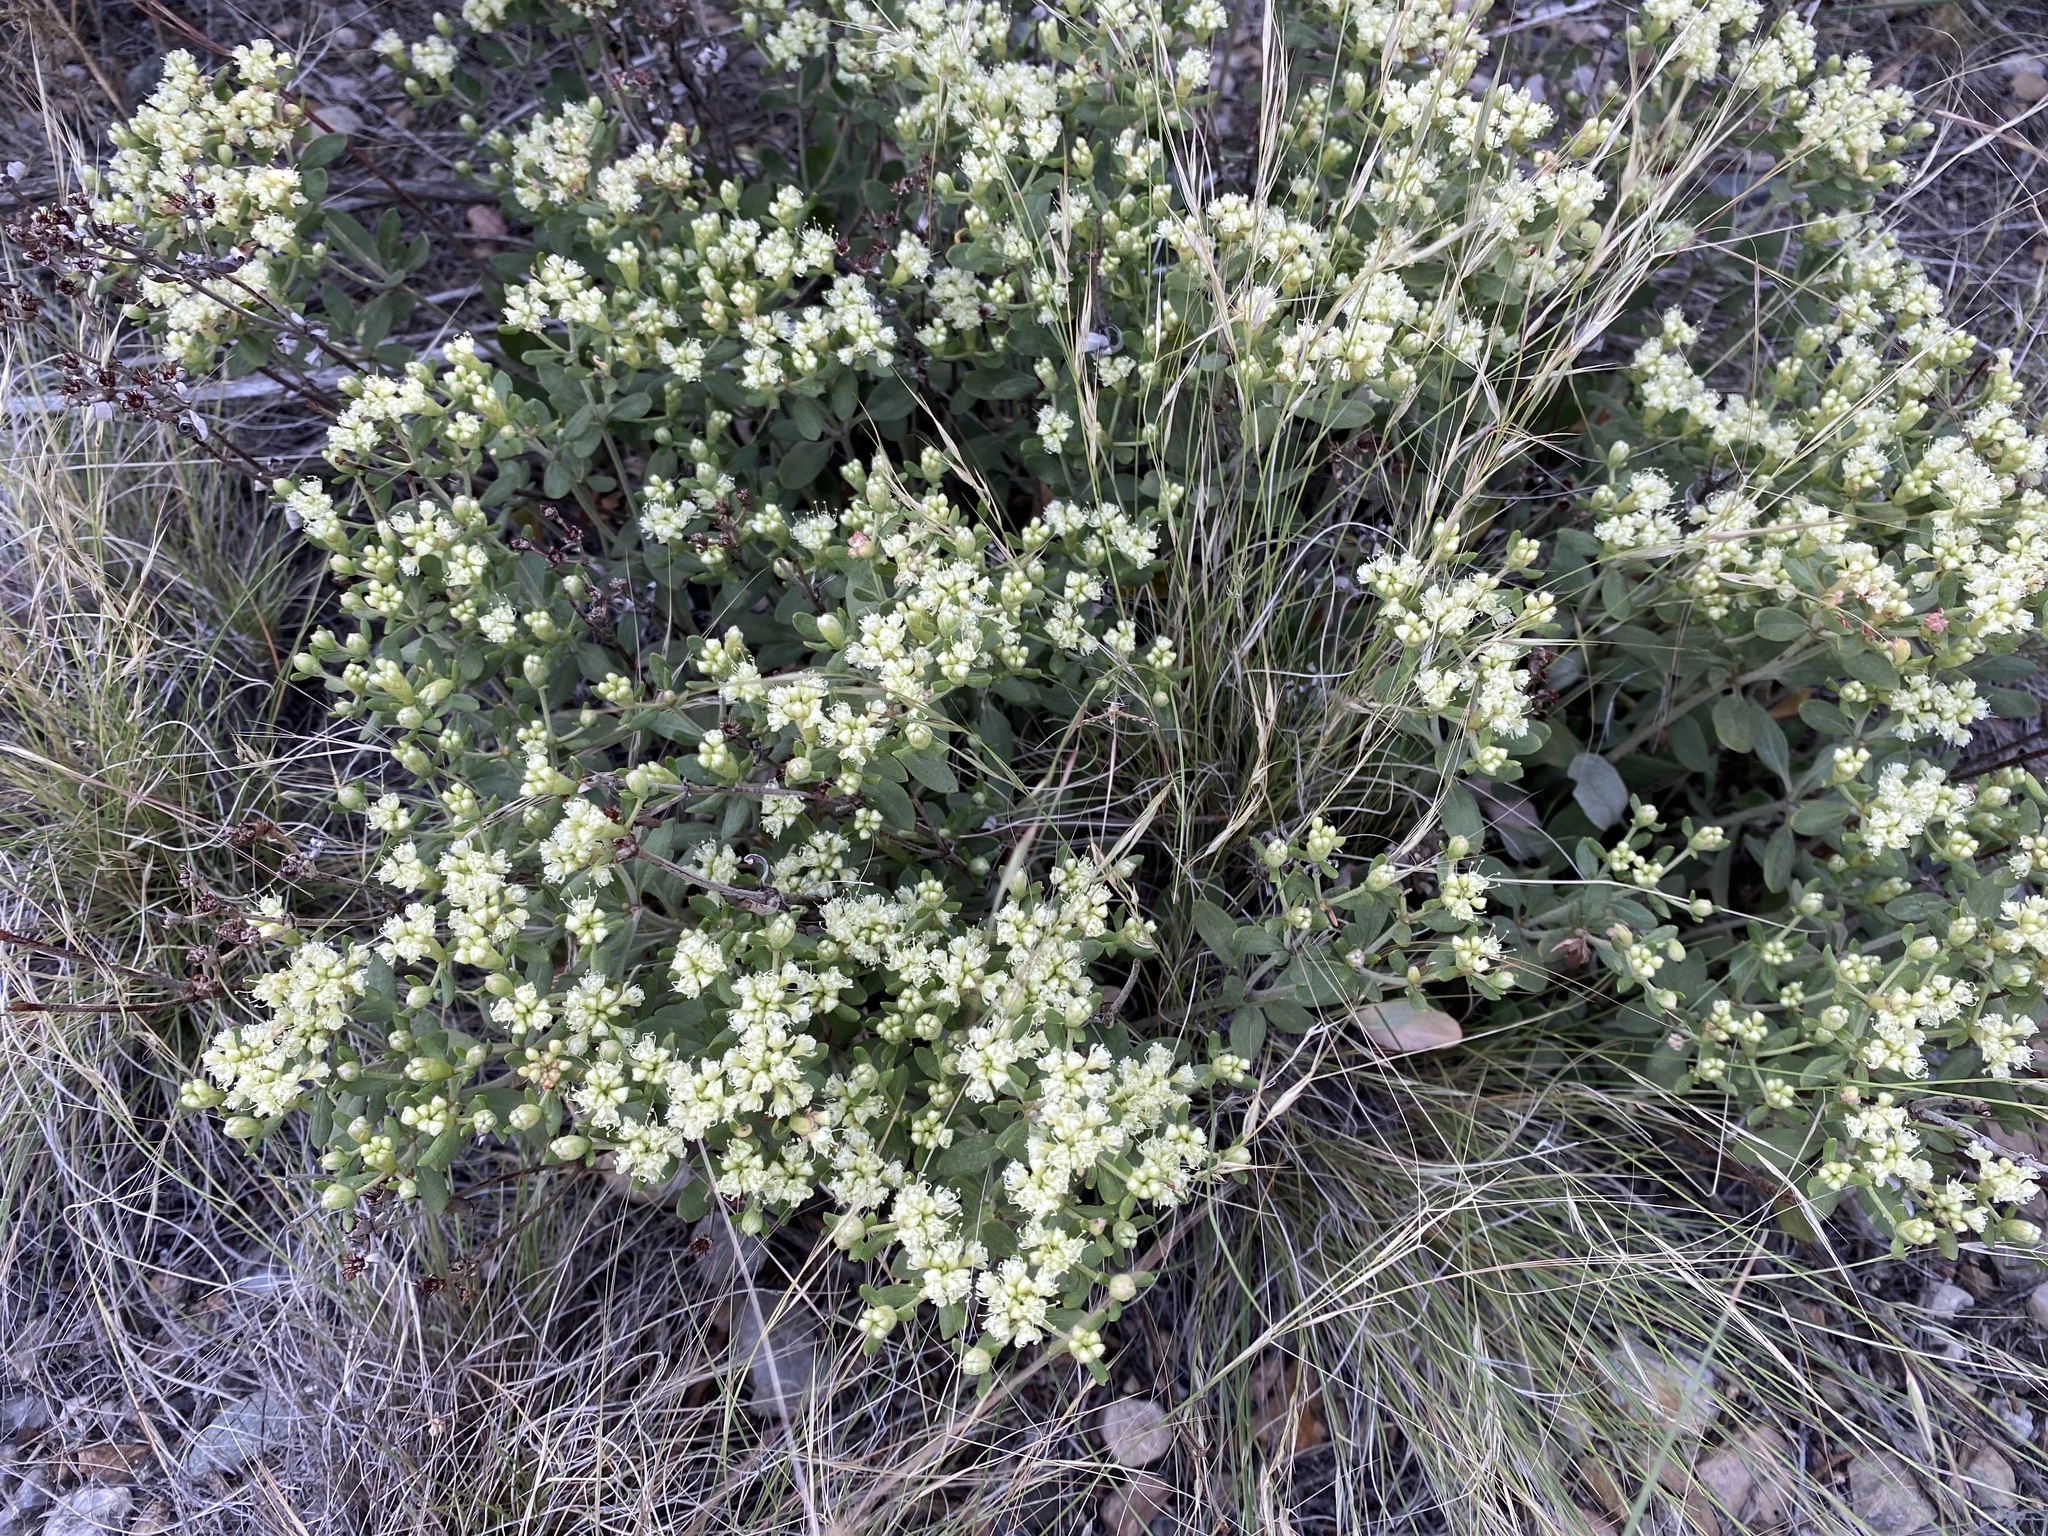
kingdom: Plantae
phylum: Tracheophyta
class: Magnoliopsida
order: Caryophyllales
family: Polygonaceae
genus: Eriogonum
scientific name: Eriogonum jamesii
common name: Antelope-sage
